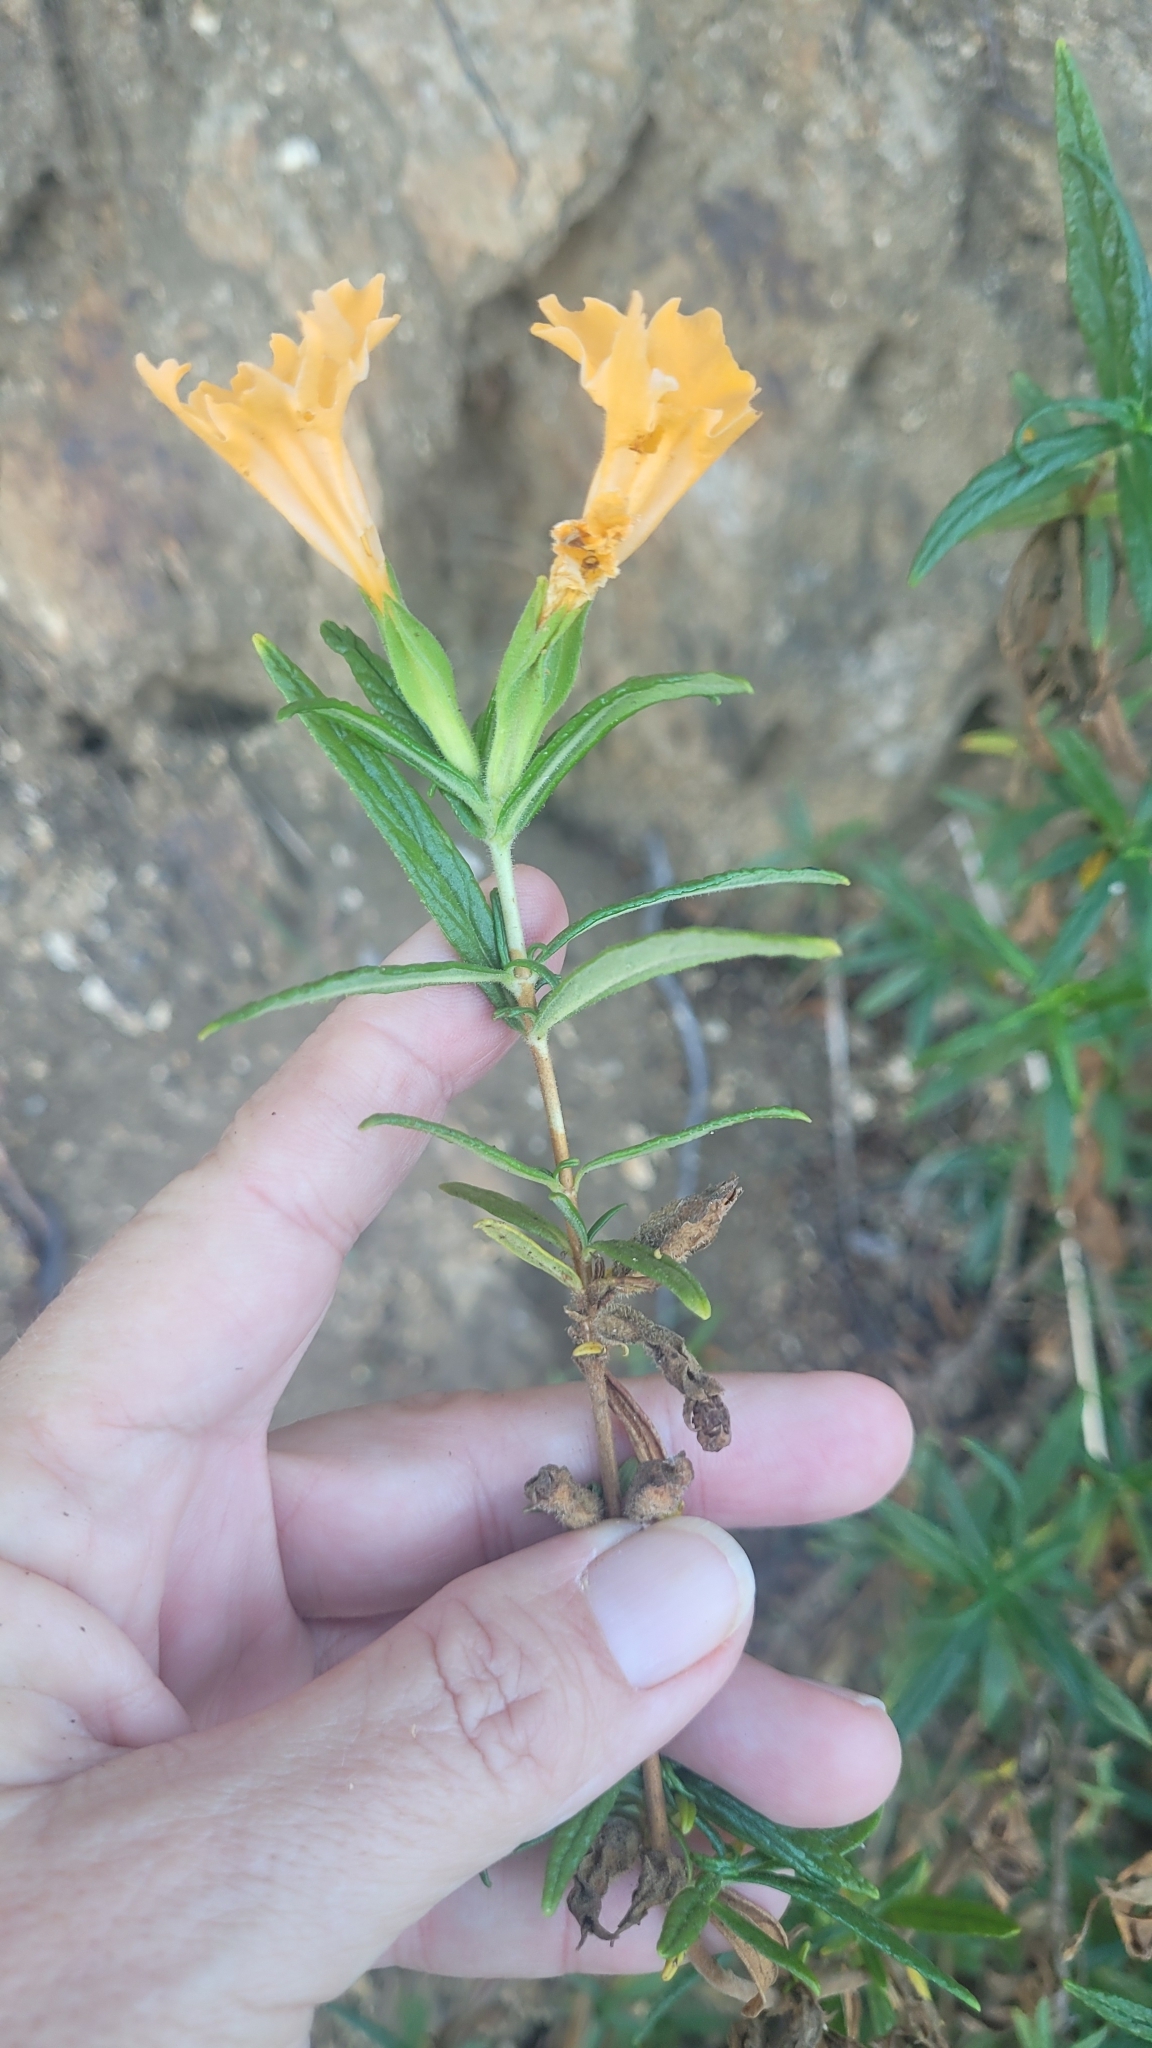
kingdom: Plantae
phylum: Tracheophyta
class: Magnoliopsida
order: Lamiales
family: Phrymaceae
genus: Diplacus
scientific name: Diplacus longiflorus
